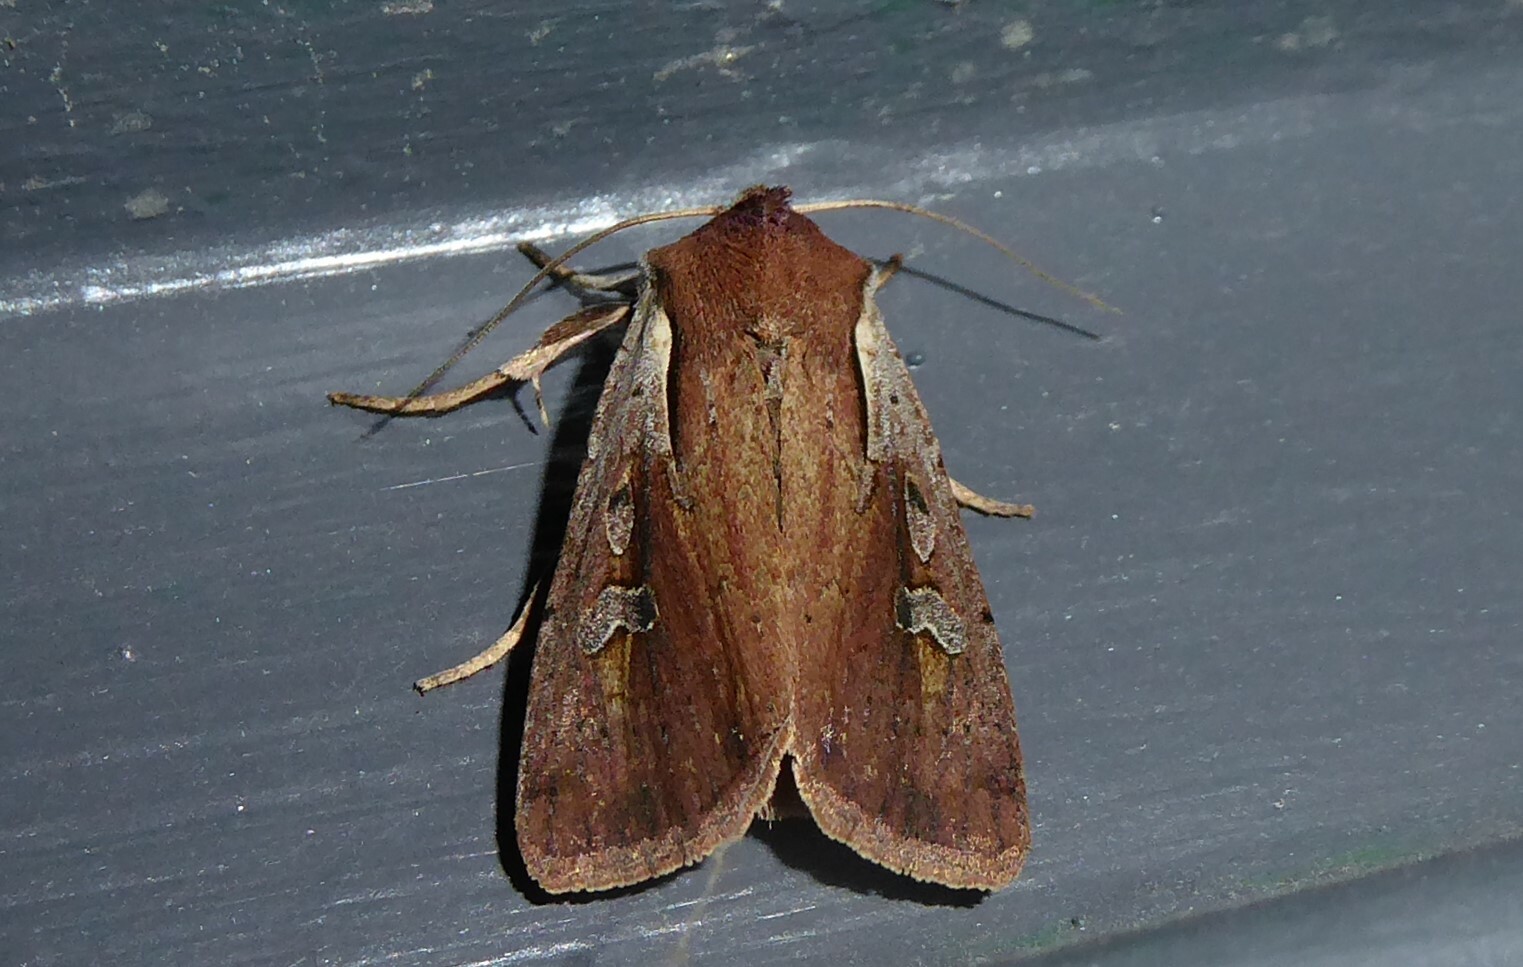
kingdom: Animalia
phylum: Arthropoda
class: Insecta
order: Lepidoptera
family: Noctuidae
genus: Ichneutica
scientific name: Ichneutica atristriga
